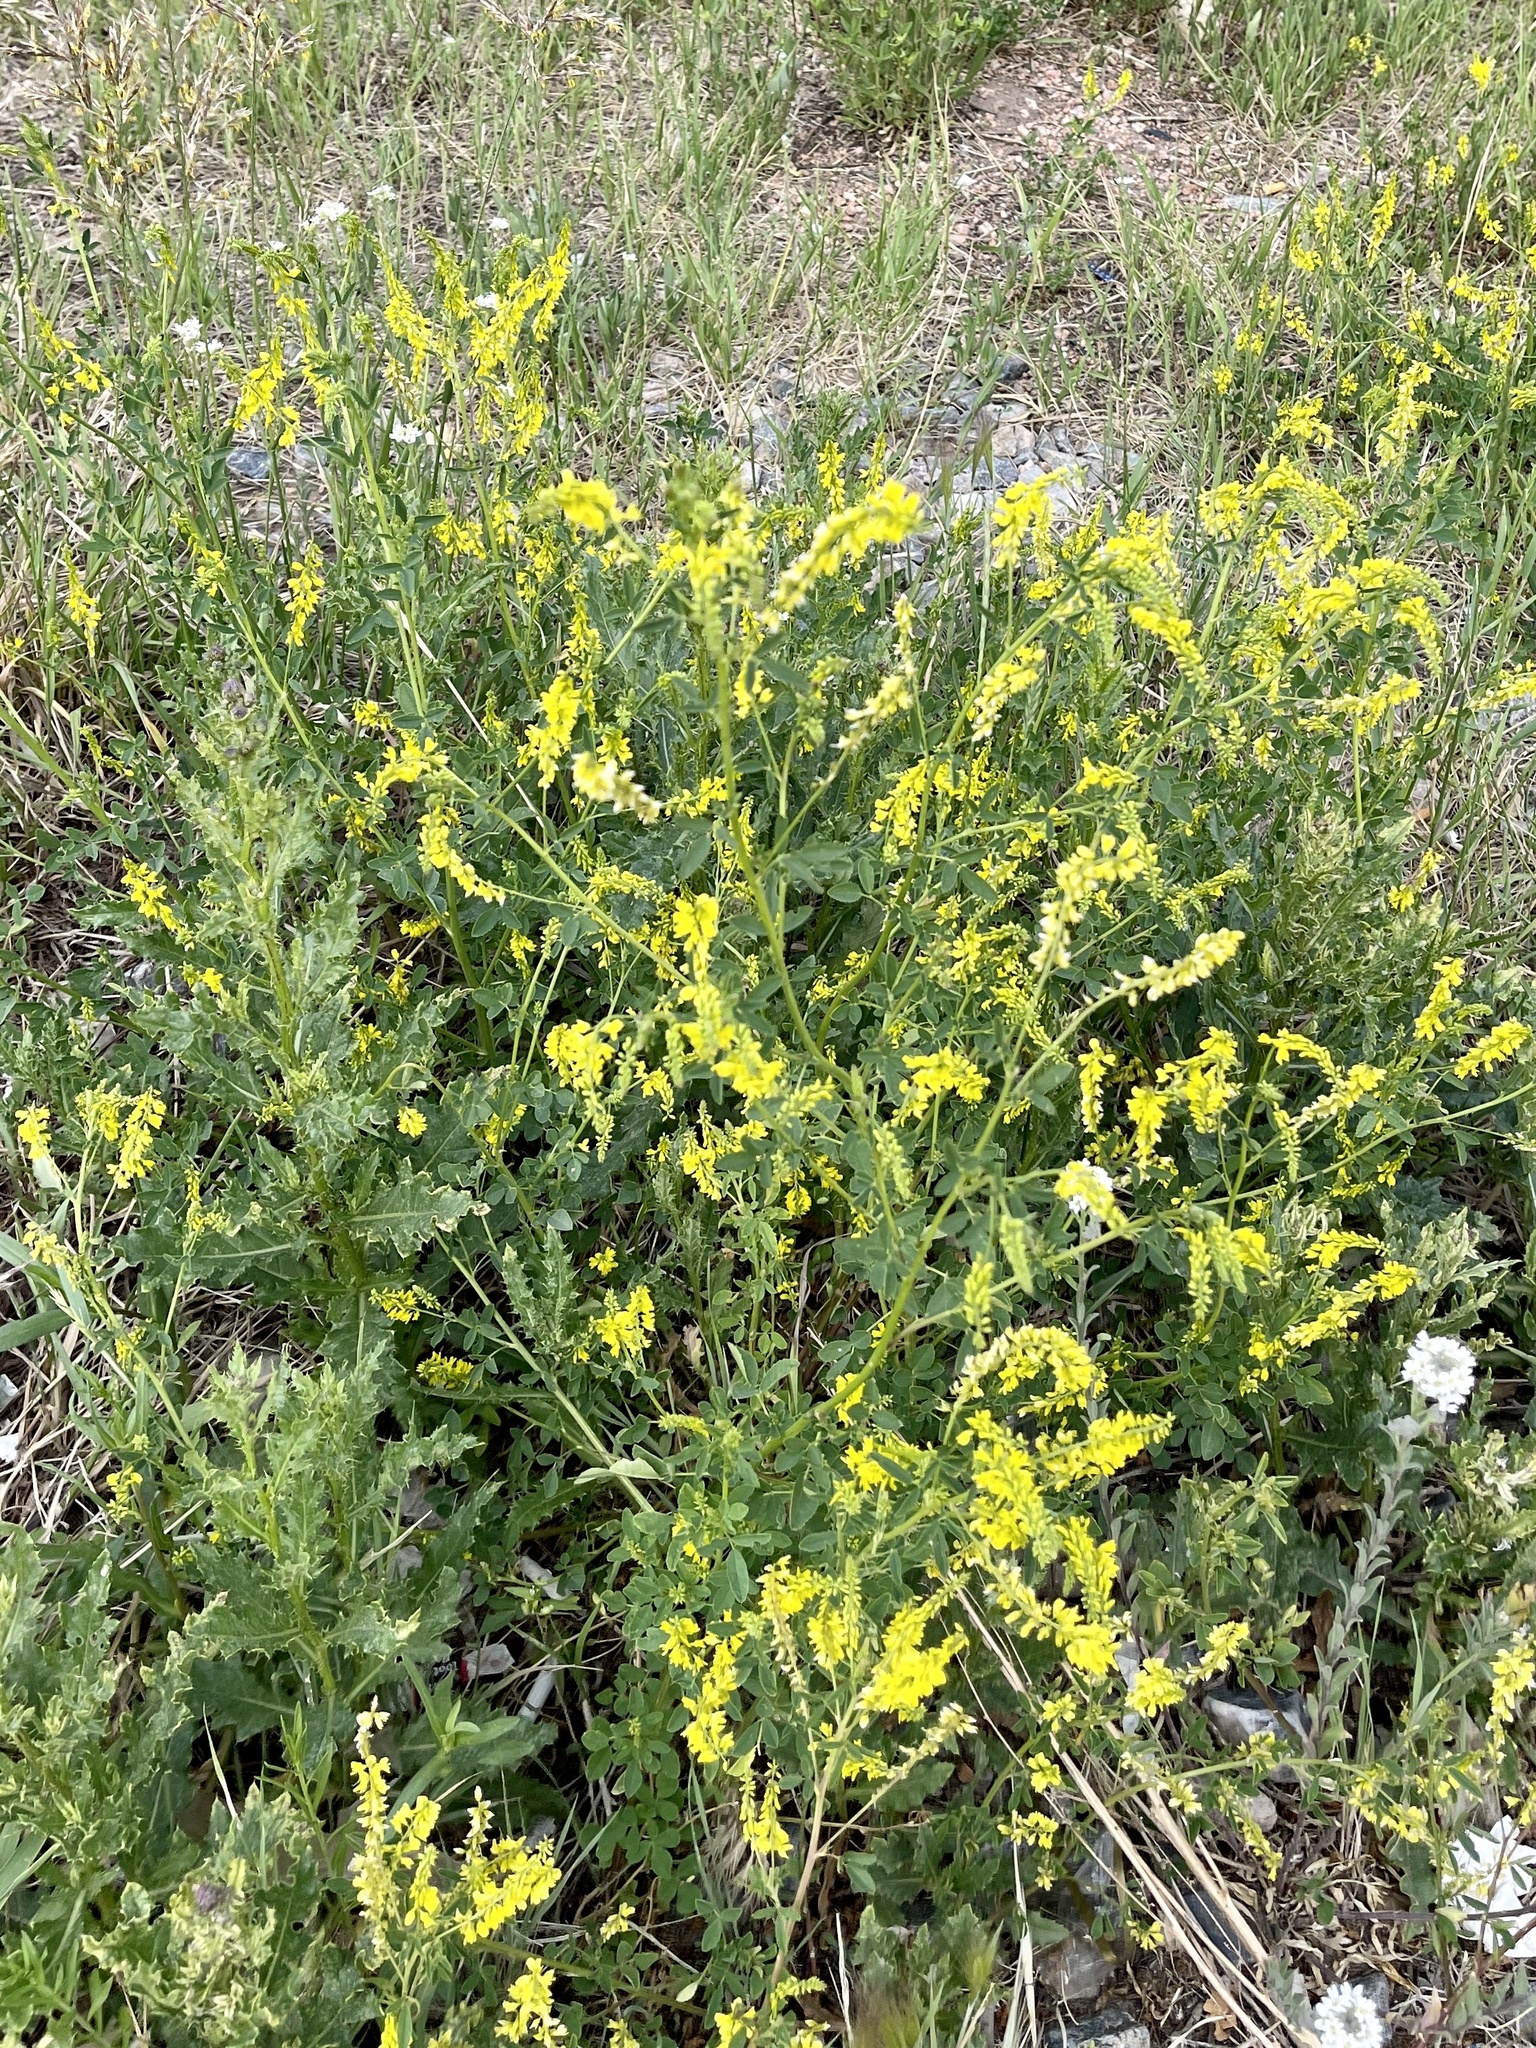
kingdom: Plantae
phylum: Tracheophyta
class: Magnoliopsida
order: Fabales
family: Fabaceae
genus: Melilotus
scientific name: Melilotus officinalis
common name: Sweetclover
